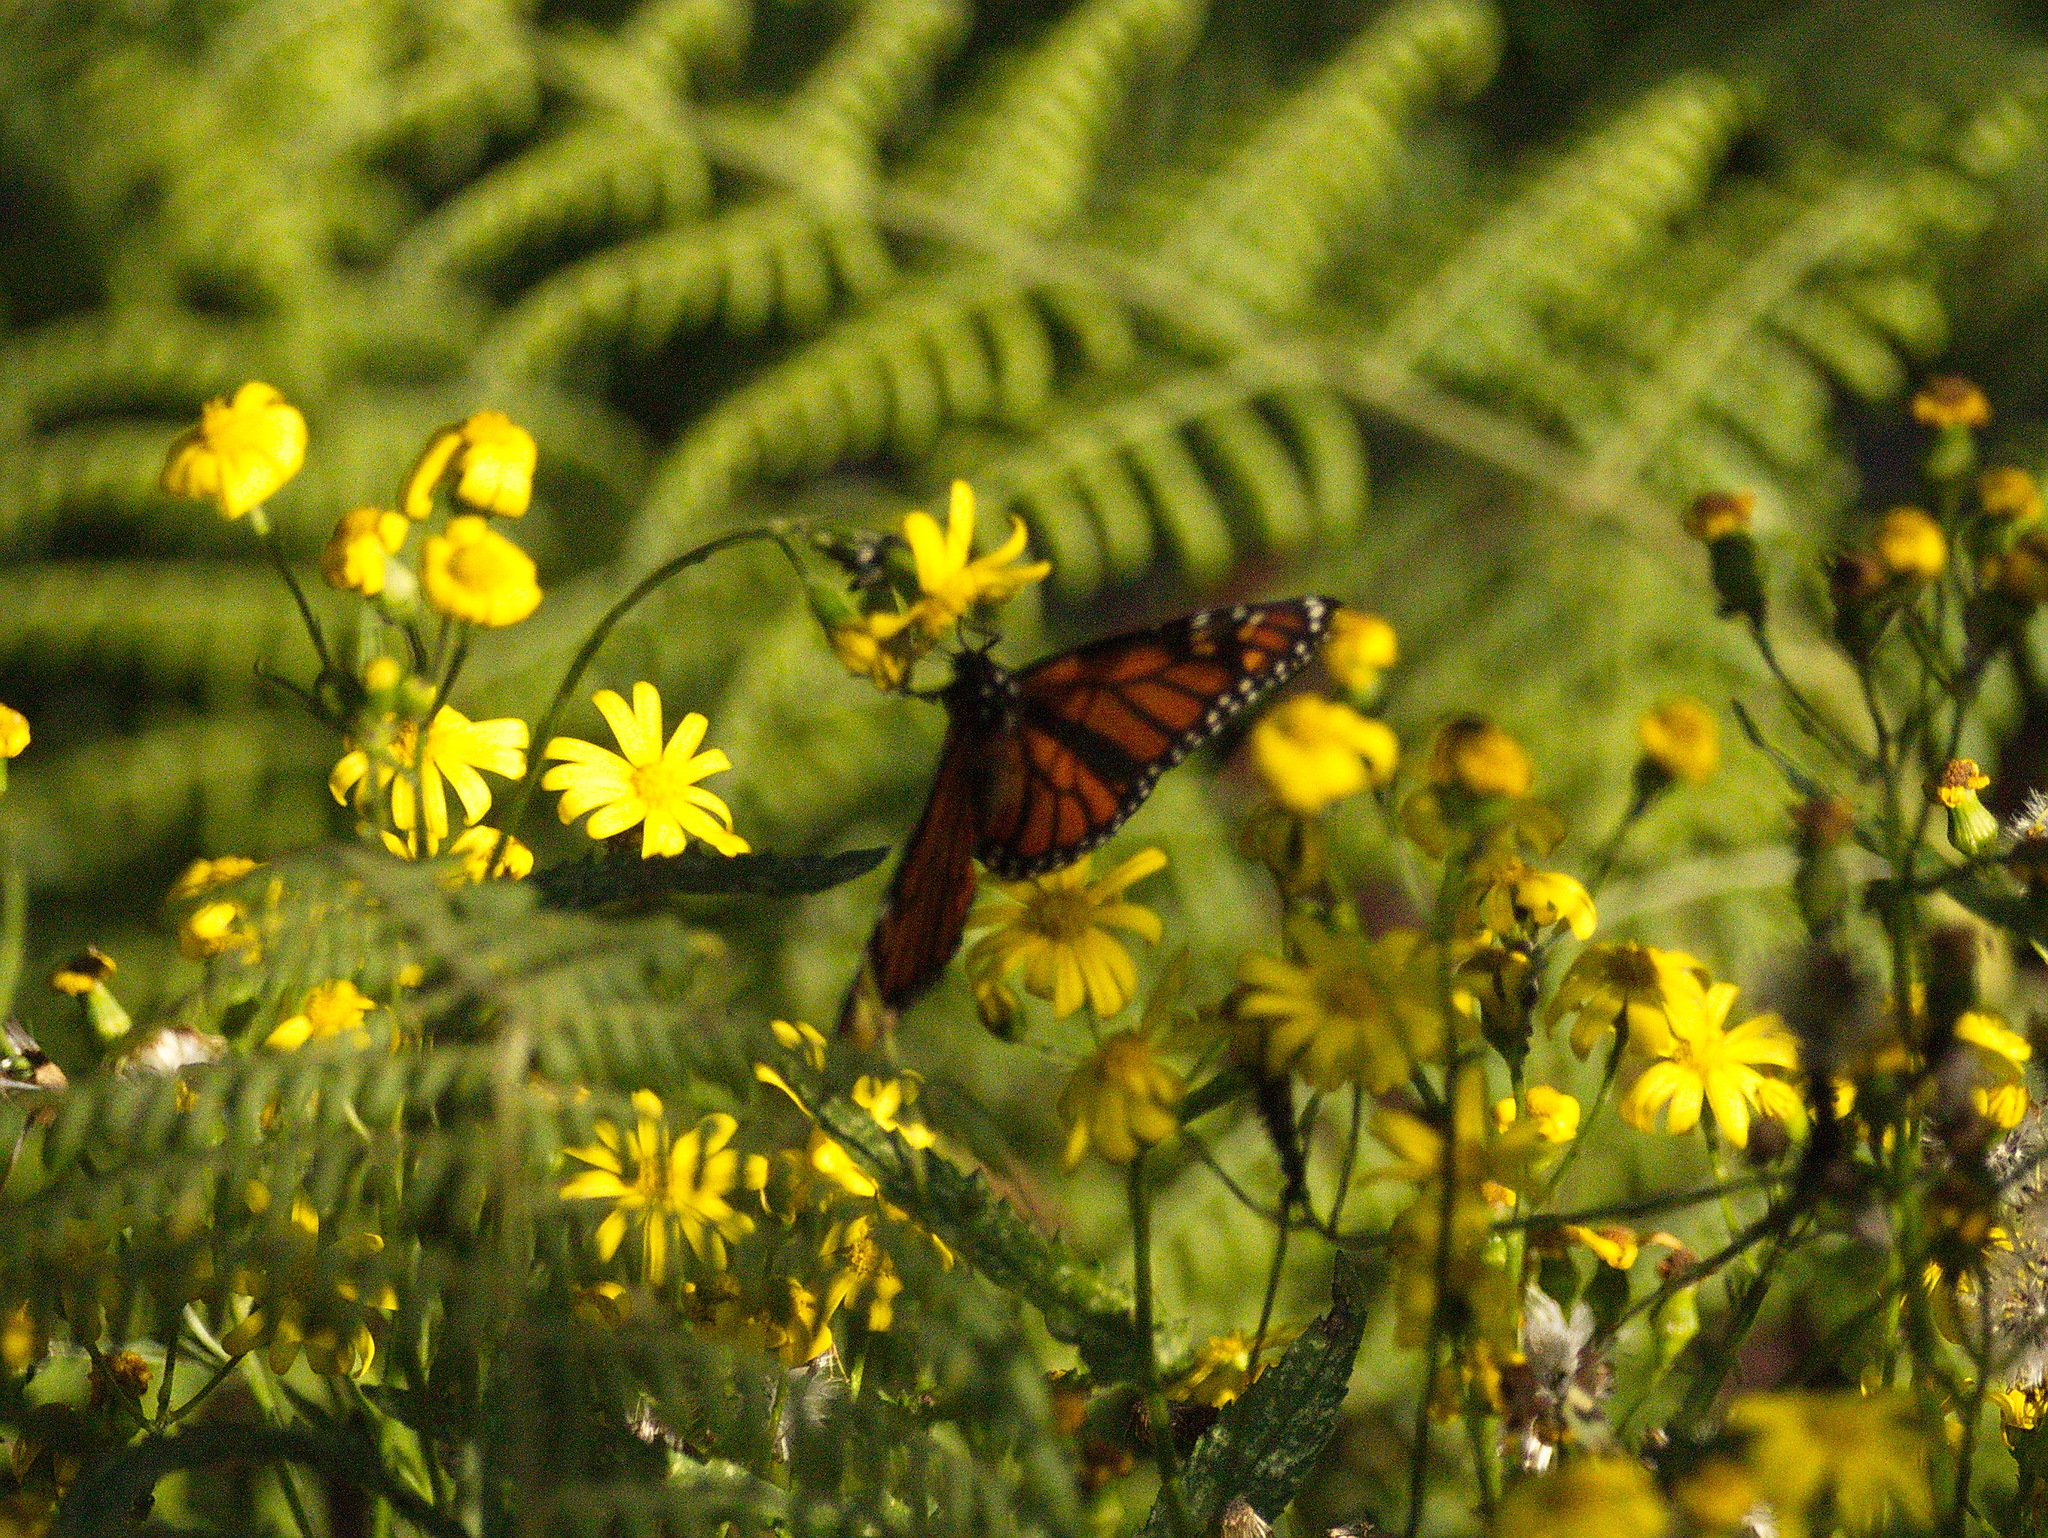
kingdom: Animalia
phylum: Arthropoda
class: Insecta
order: Lepidoptera
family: Nymphalidae
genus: Danaus
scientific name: Danaus plexippus
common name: Monarch
